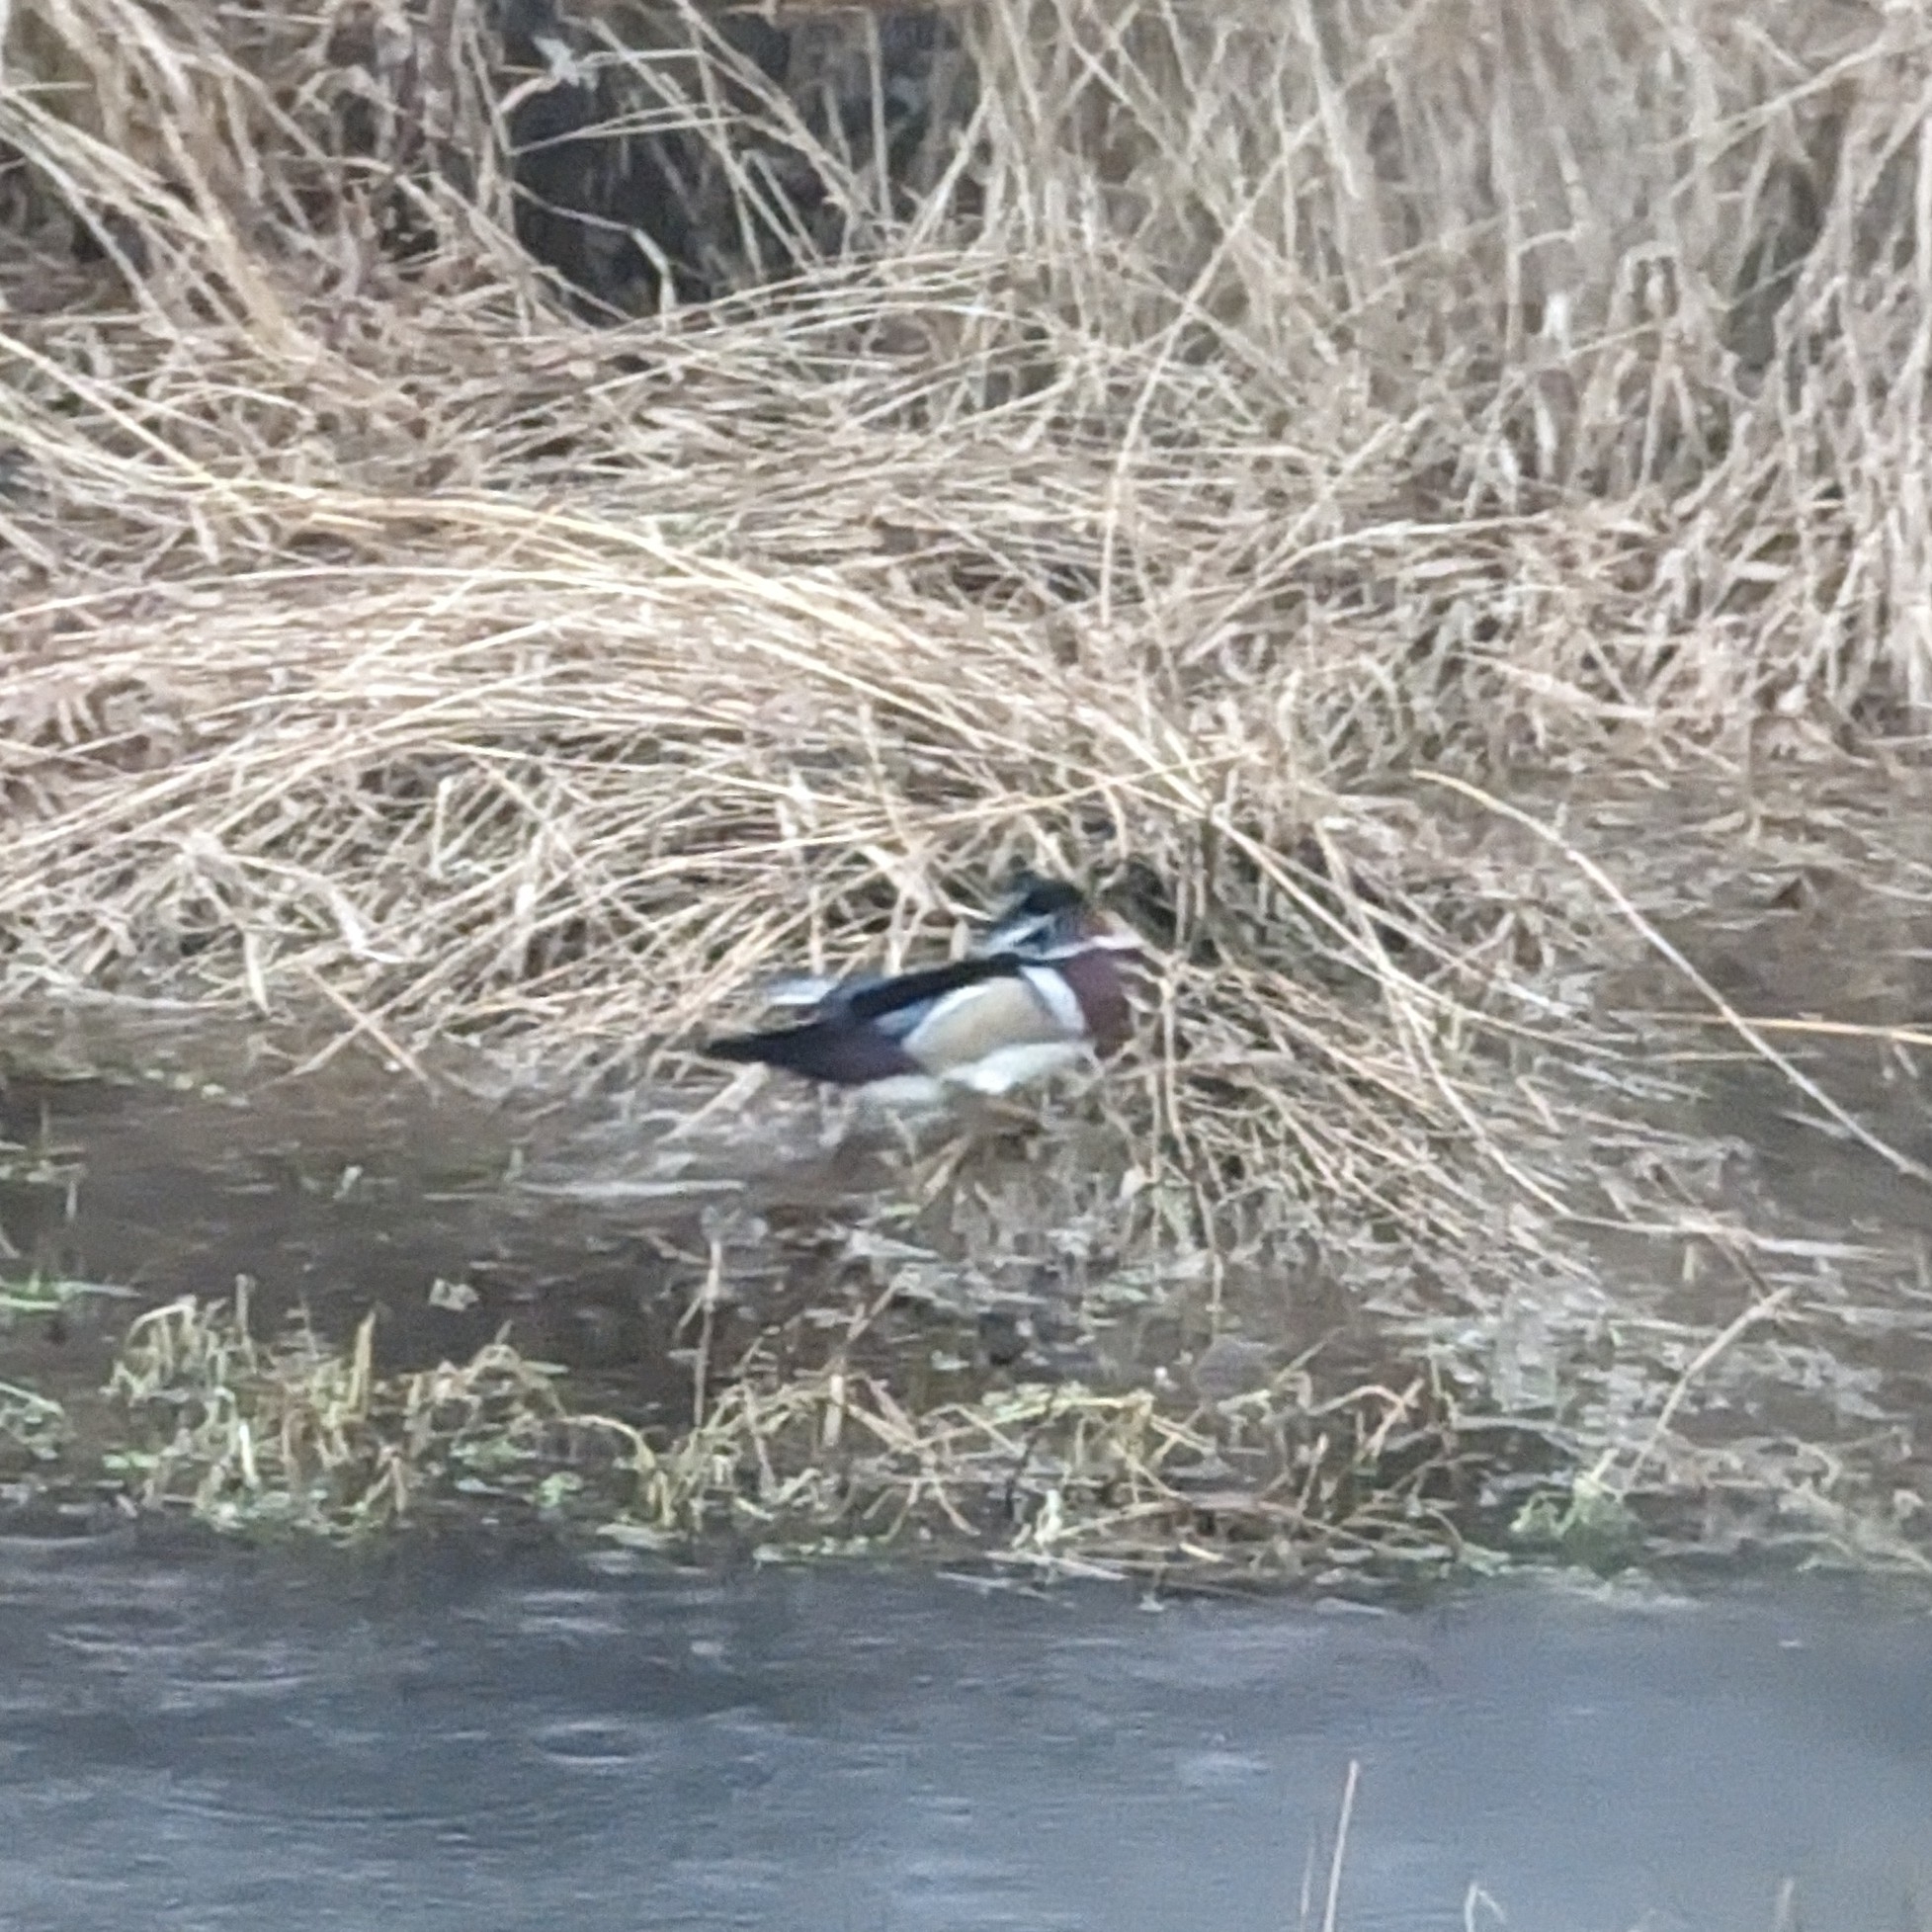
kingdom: Animalia
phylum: Chordata
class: Aves
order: Anseriformes
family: Anatidae
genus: Aix
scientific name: Aix sponsa
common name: Wood duck
